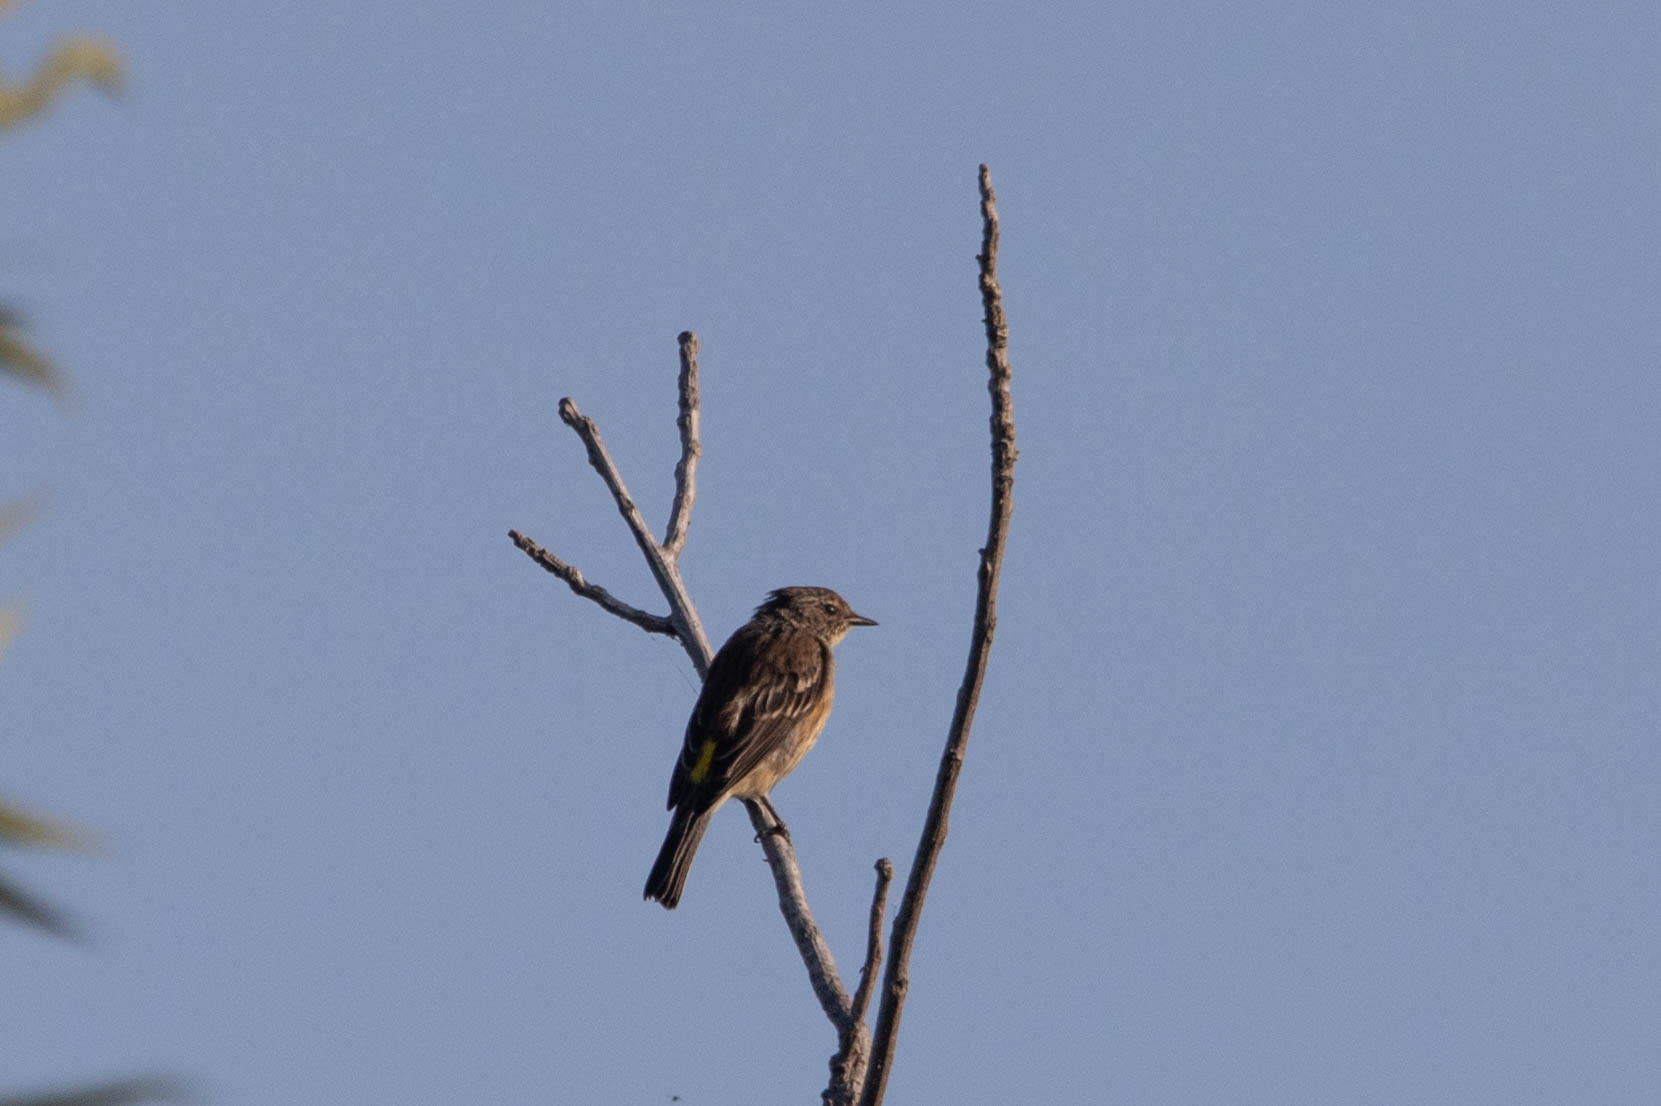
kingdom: Animalia
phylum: Chordata
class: Aves
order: Passeriformes
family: Parulidae
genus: Setophaga
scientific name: Setophaga coronata
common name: Myrtle warbler
